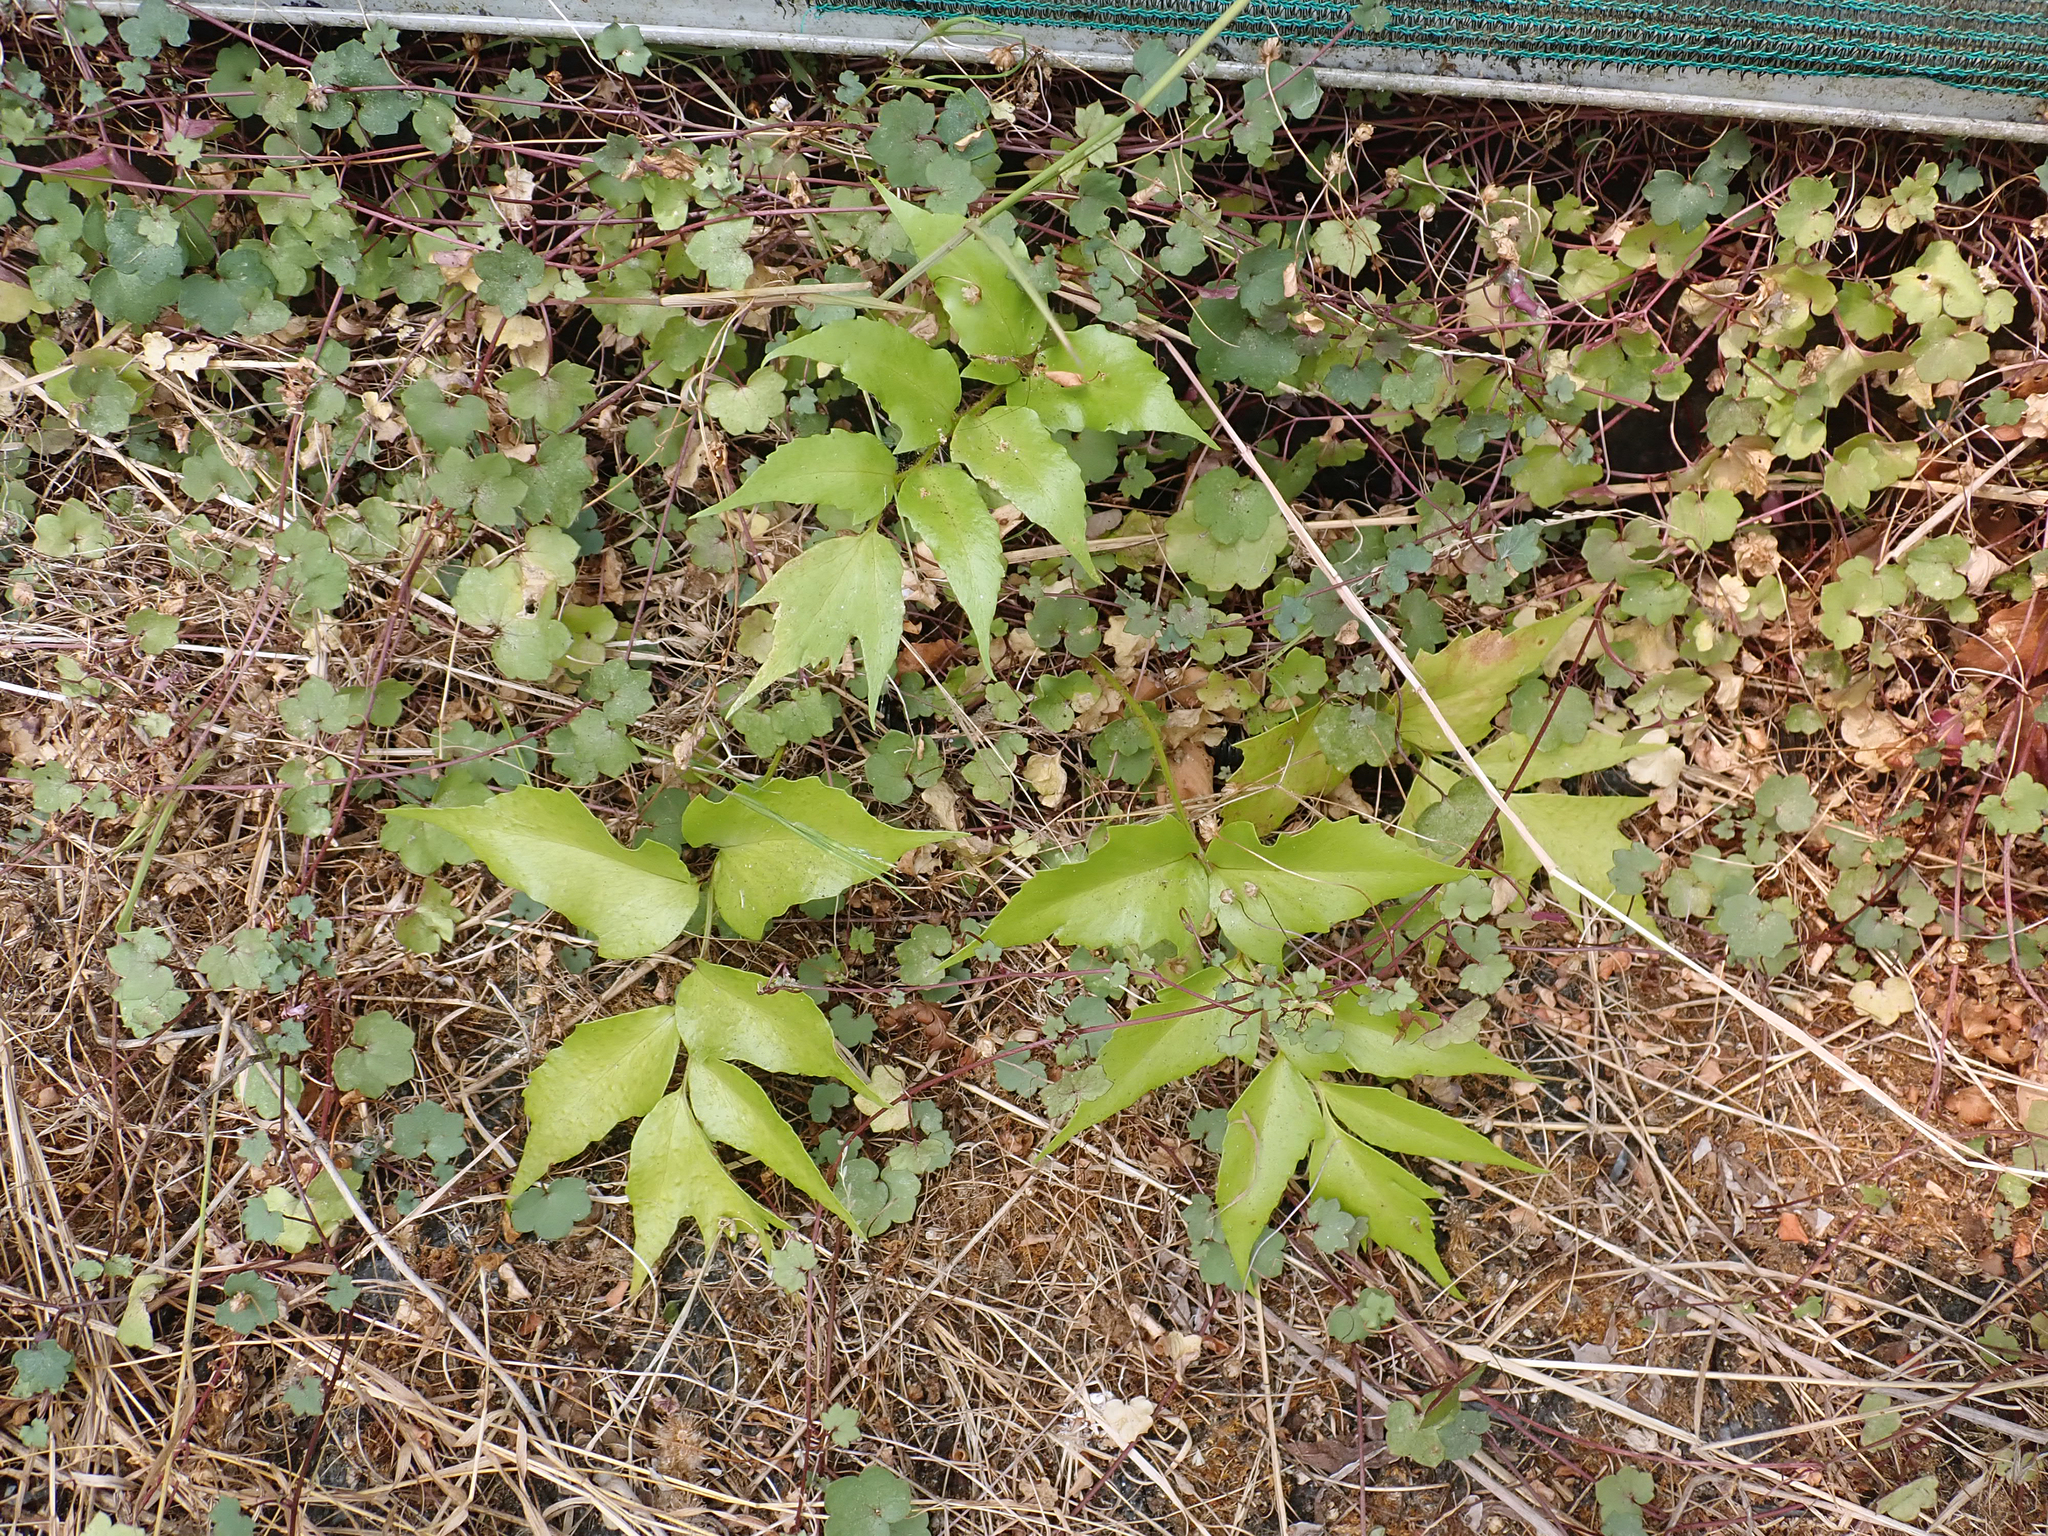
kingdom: Plantae
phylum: Tracheophyta
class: Polypodiopsida
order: Polypodiales
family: Dryopteridaceae
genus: Cyrtomium
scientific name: Cyrtomium falcatum
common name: House holly-fern
